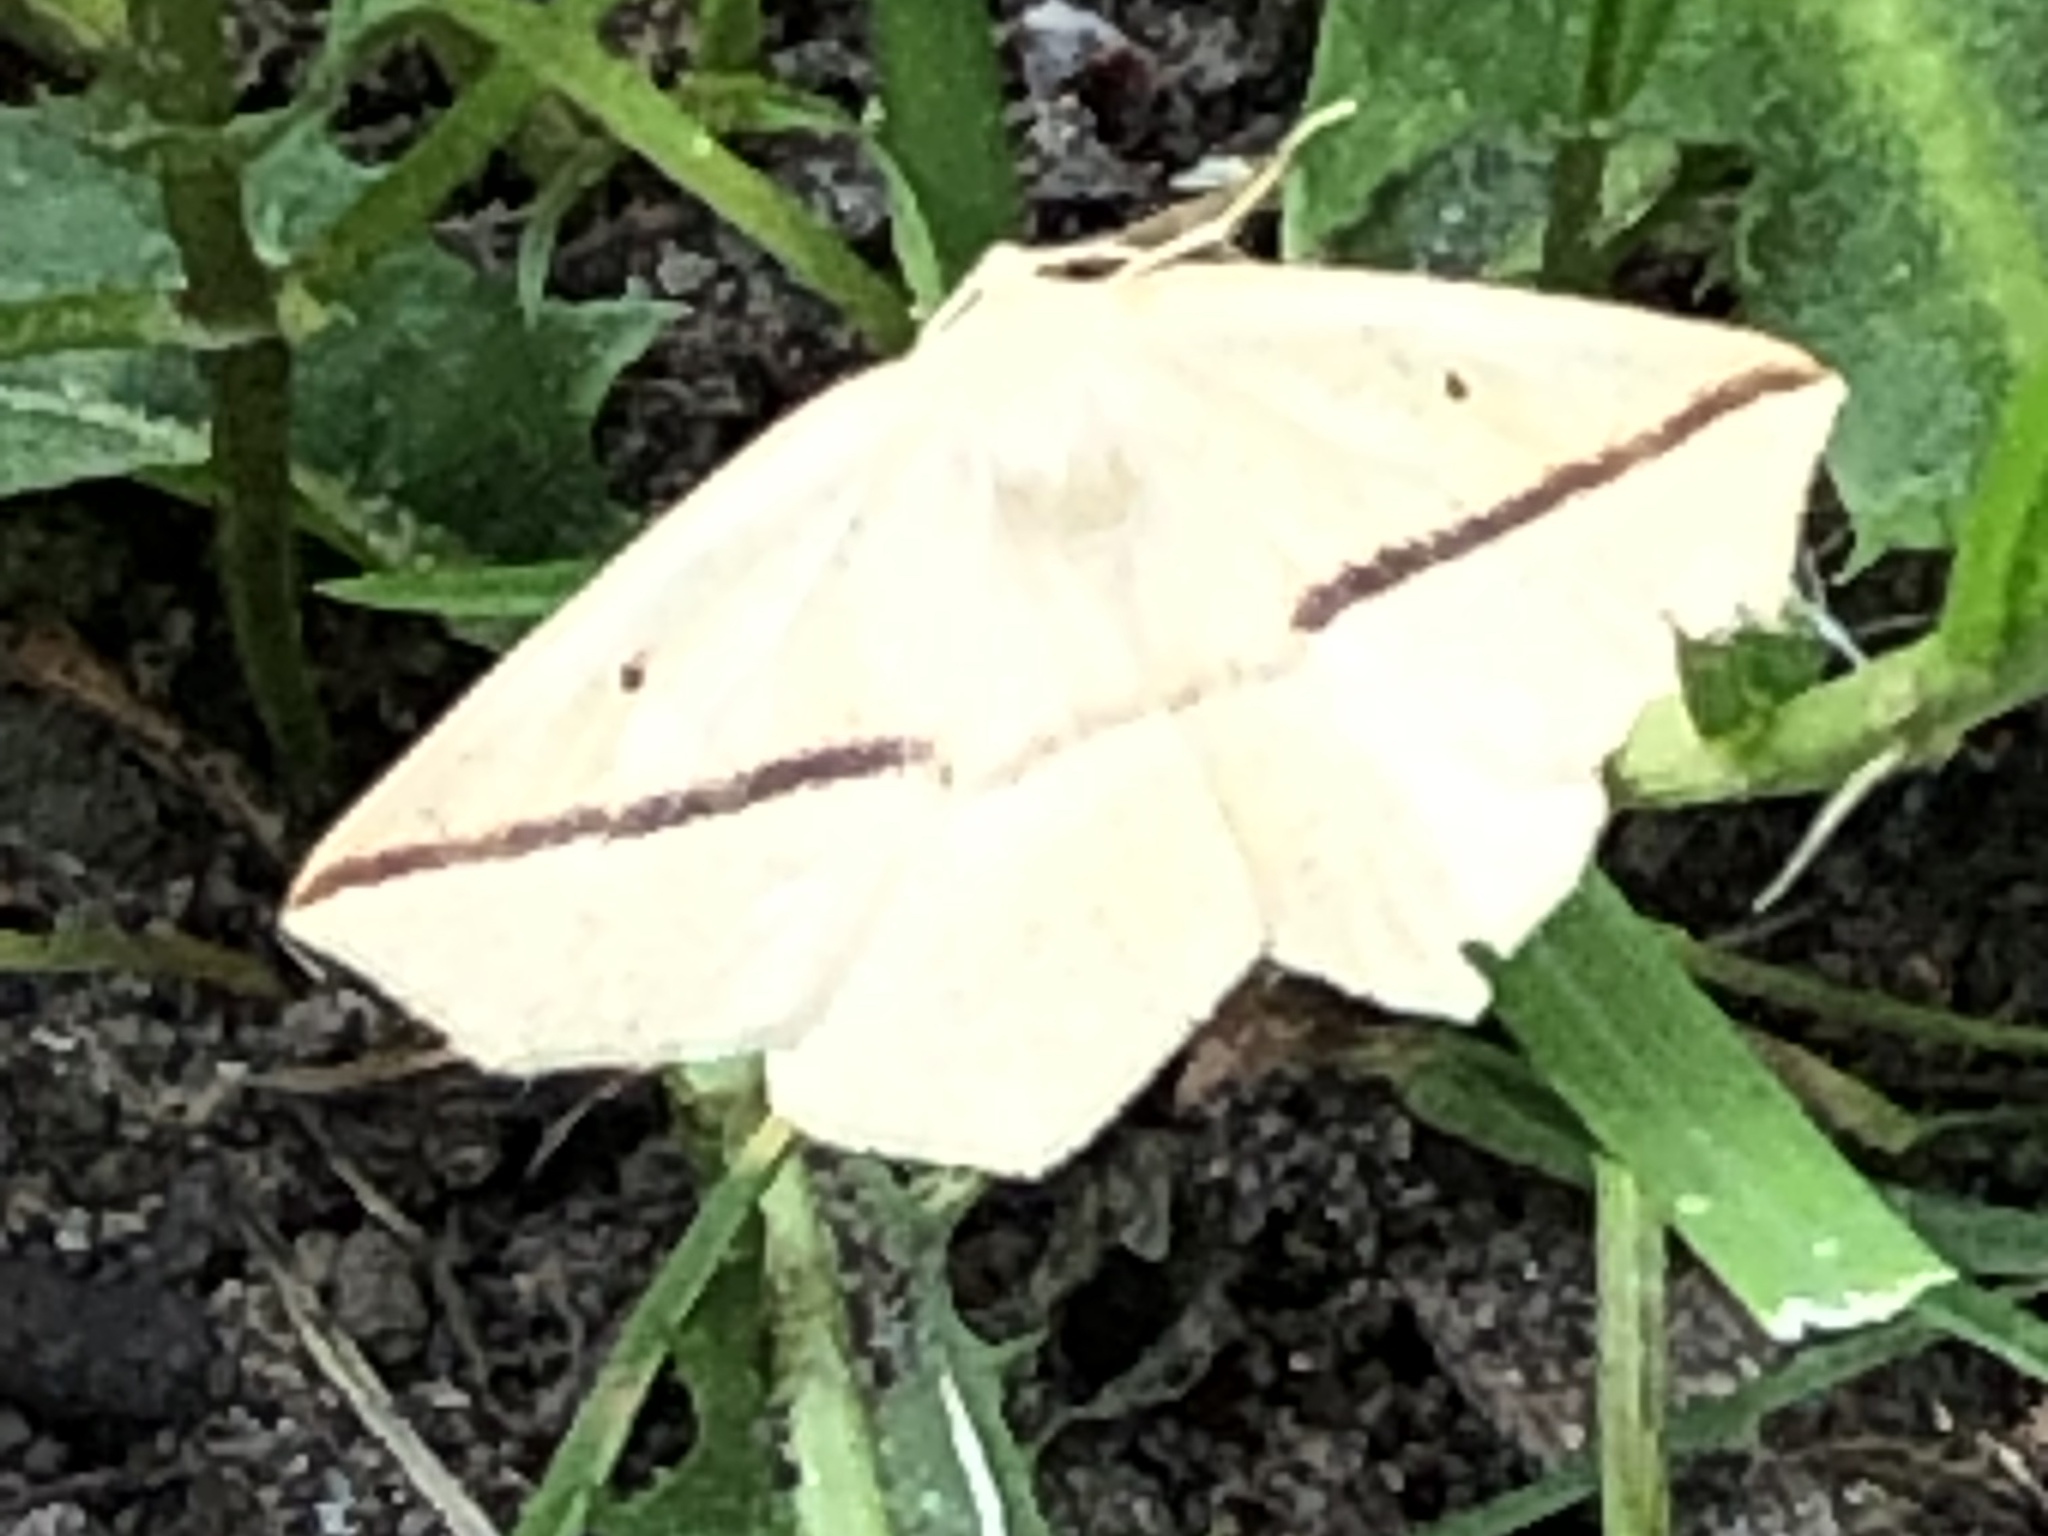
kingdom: Animalia
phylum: Arthropoda
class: Insecta
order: Lepidoptera
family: Geometridae
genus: Tetracis
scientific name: Tetracis crocallata
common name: Yellow slant-line
